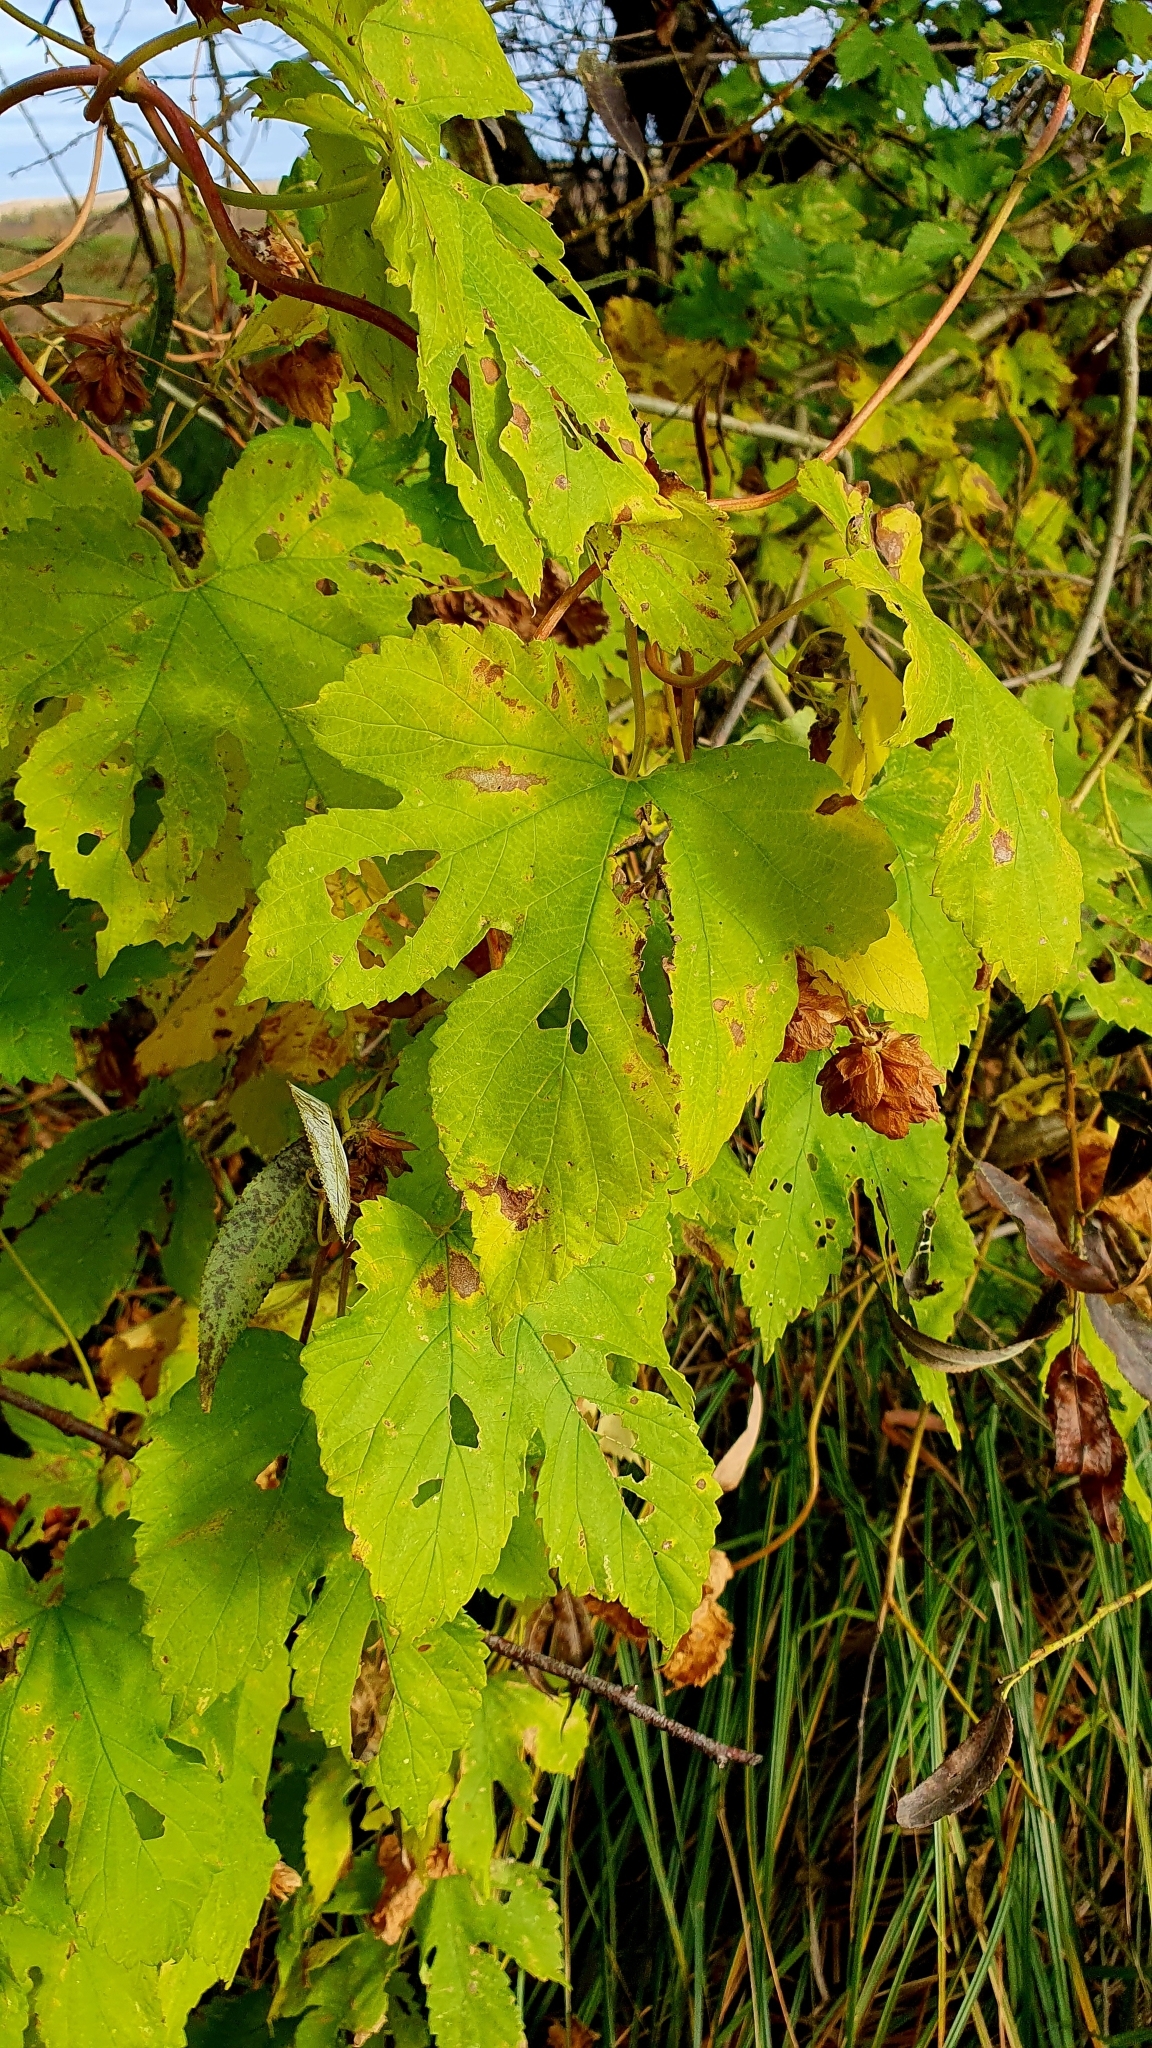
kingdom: Plantae
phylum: Tracheophyta
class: Magnoliopsida
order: Rosales
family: Cannabaceae
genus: Humulus
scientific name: Humulus lupulus
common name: Hop
